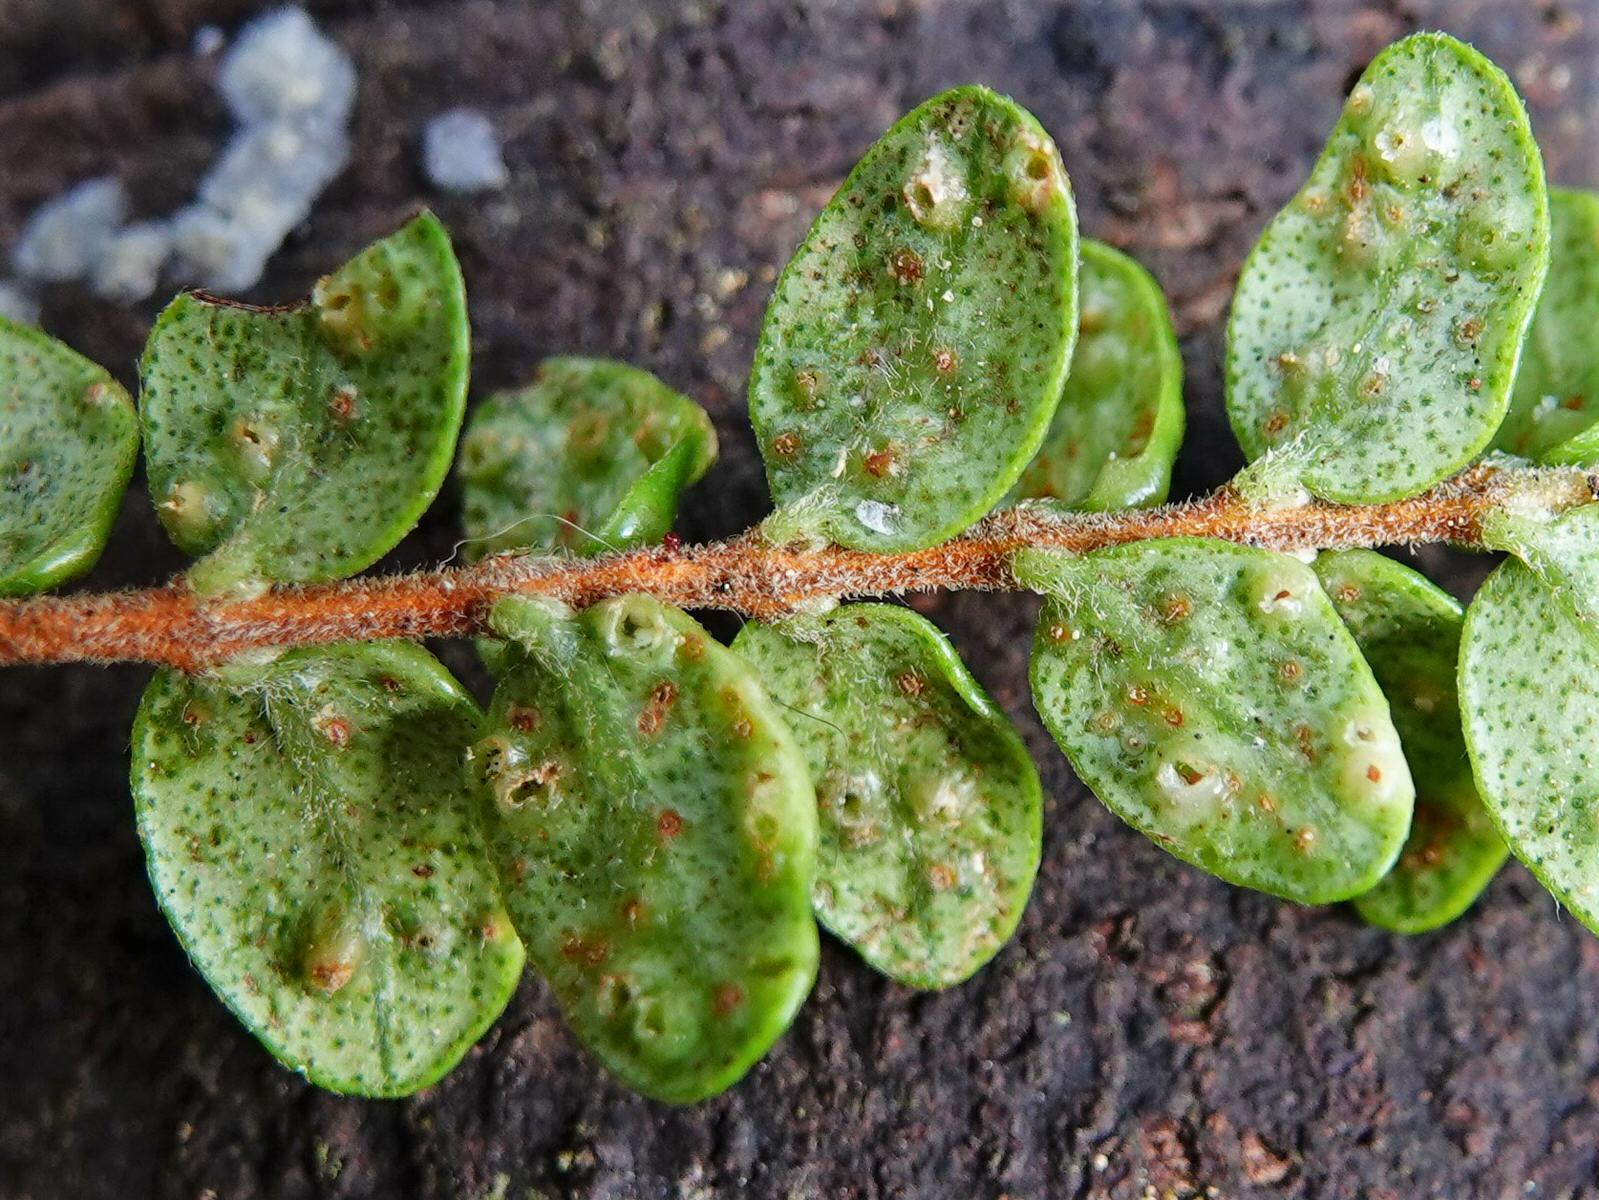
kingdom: Animalia
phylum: Arthropoda
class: Insecta
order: Hemiptera
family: Eriococcidae
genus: Eriococcus
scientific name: Eriococcus abditus
